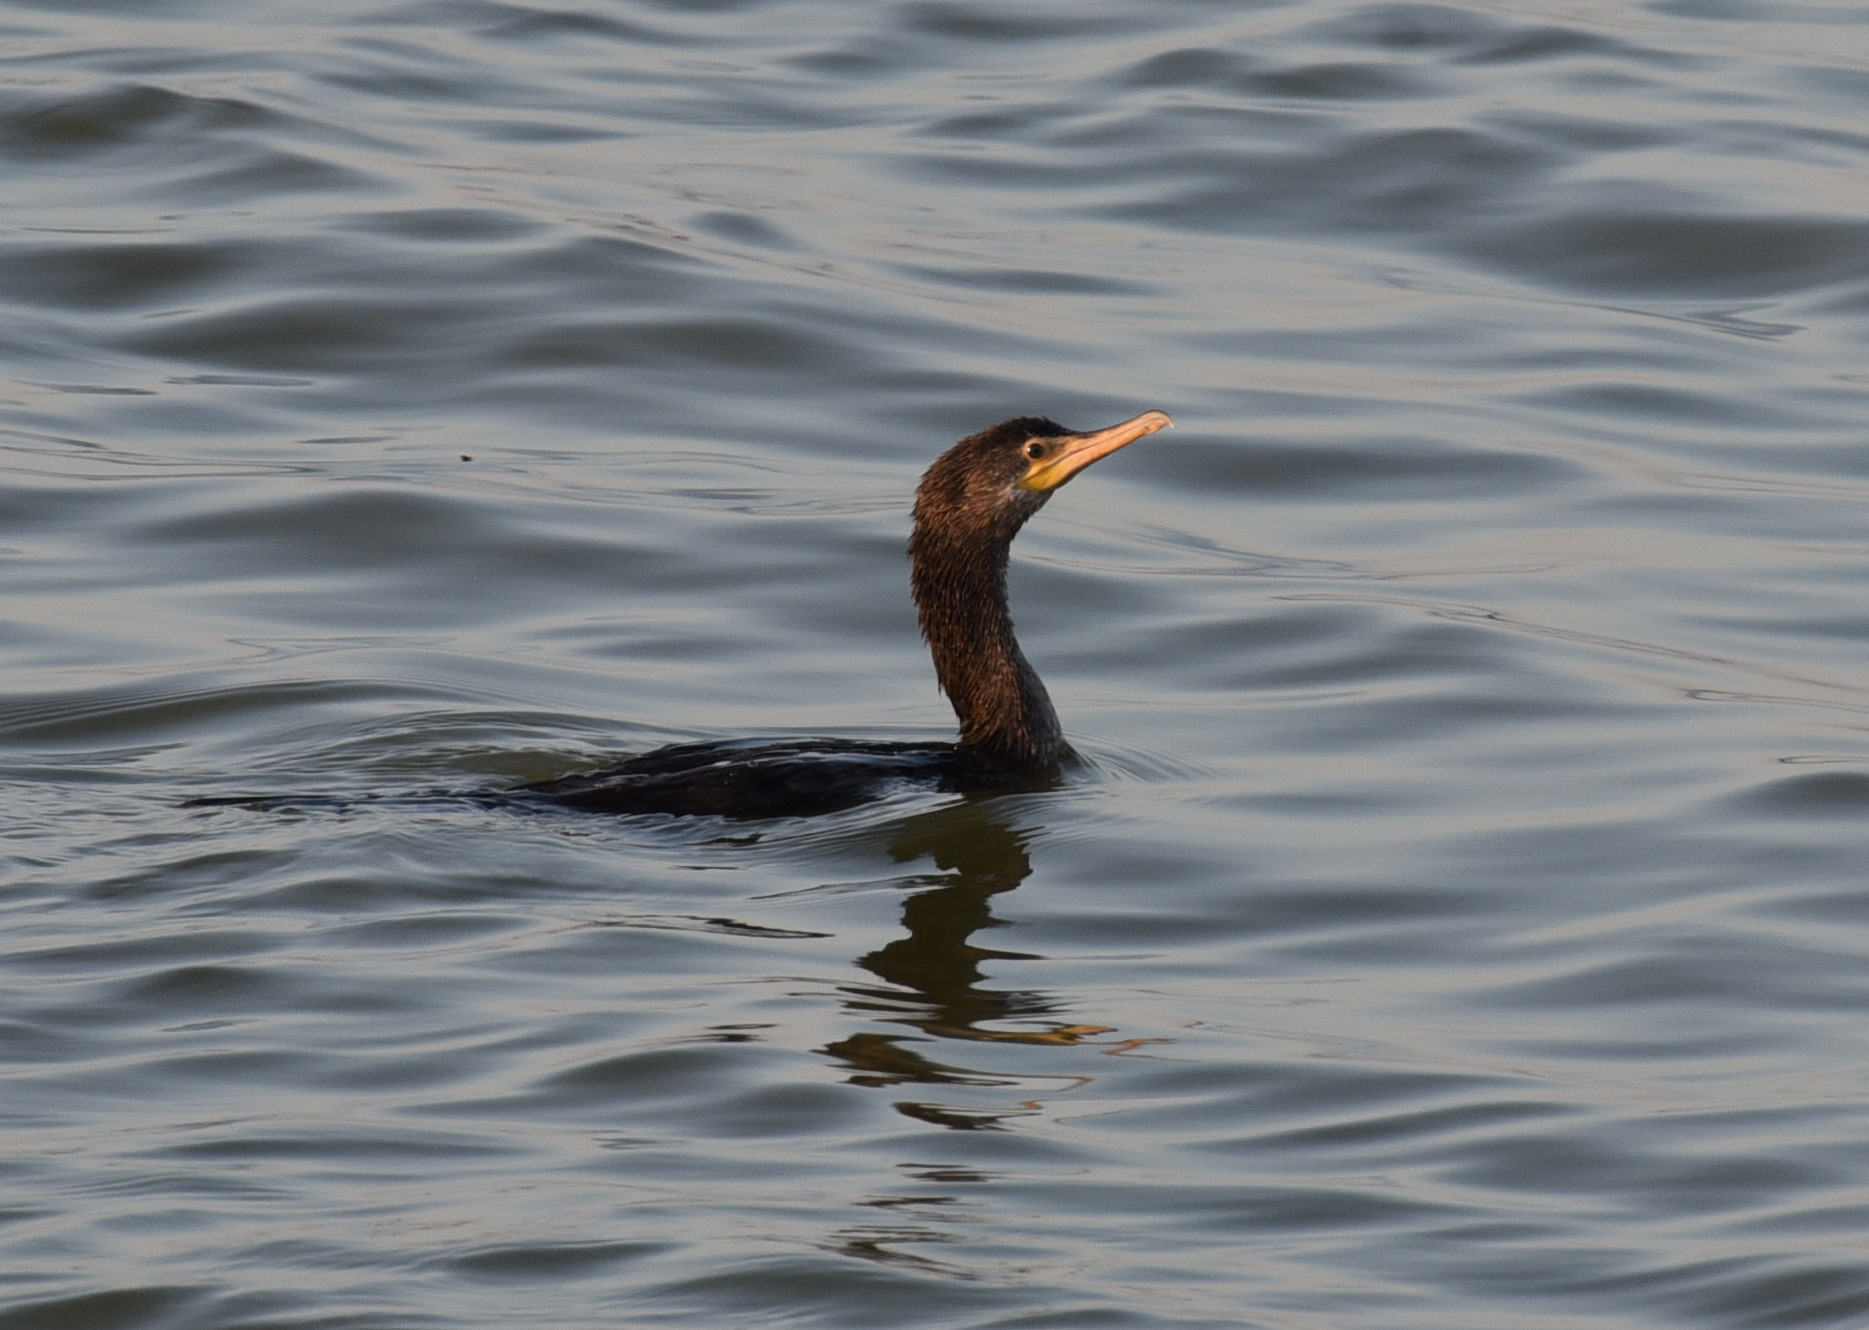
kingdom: Animalia
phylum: Chordata
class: Aves
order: Suliformes
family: Phalacrocoracidae
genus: Phalacrocorax
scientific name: Phalacrocorax auritus
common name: Double-crested cormorant
